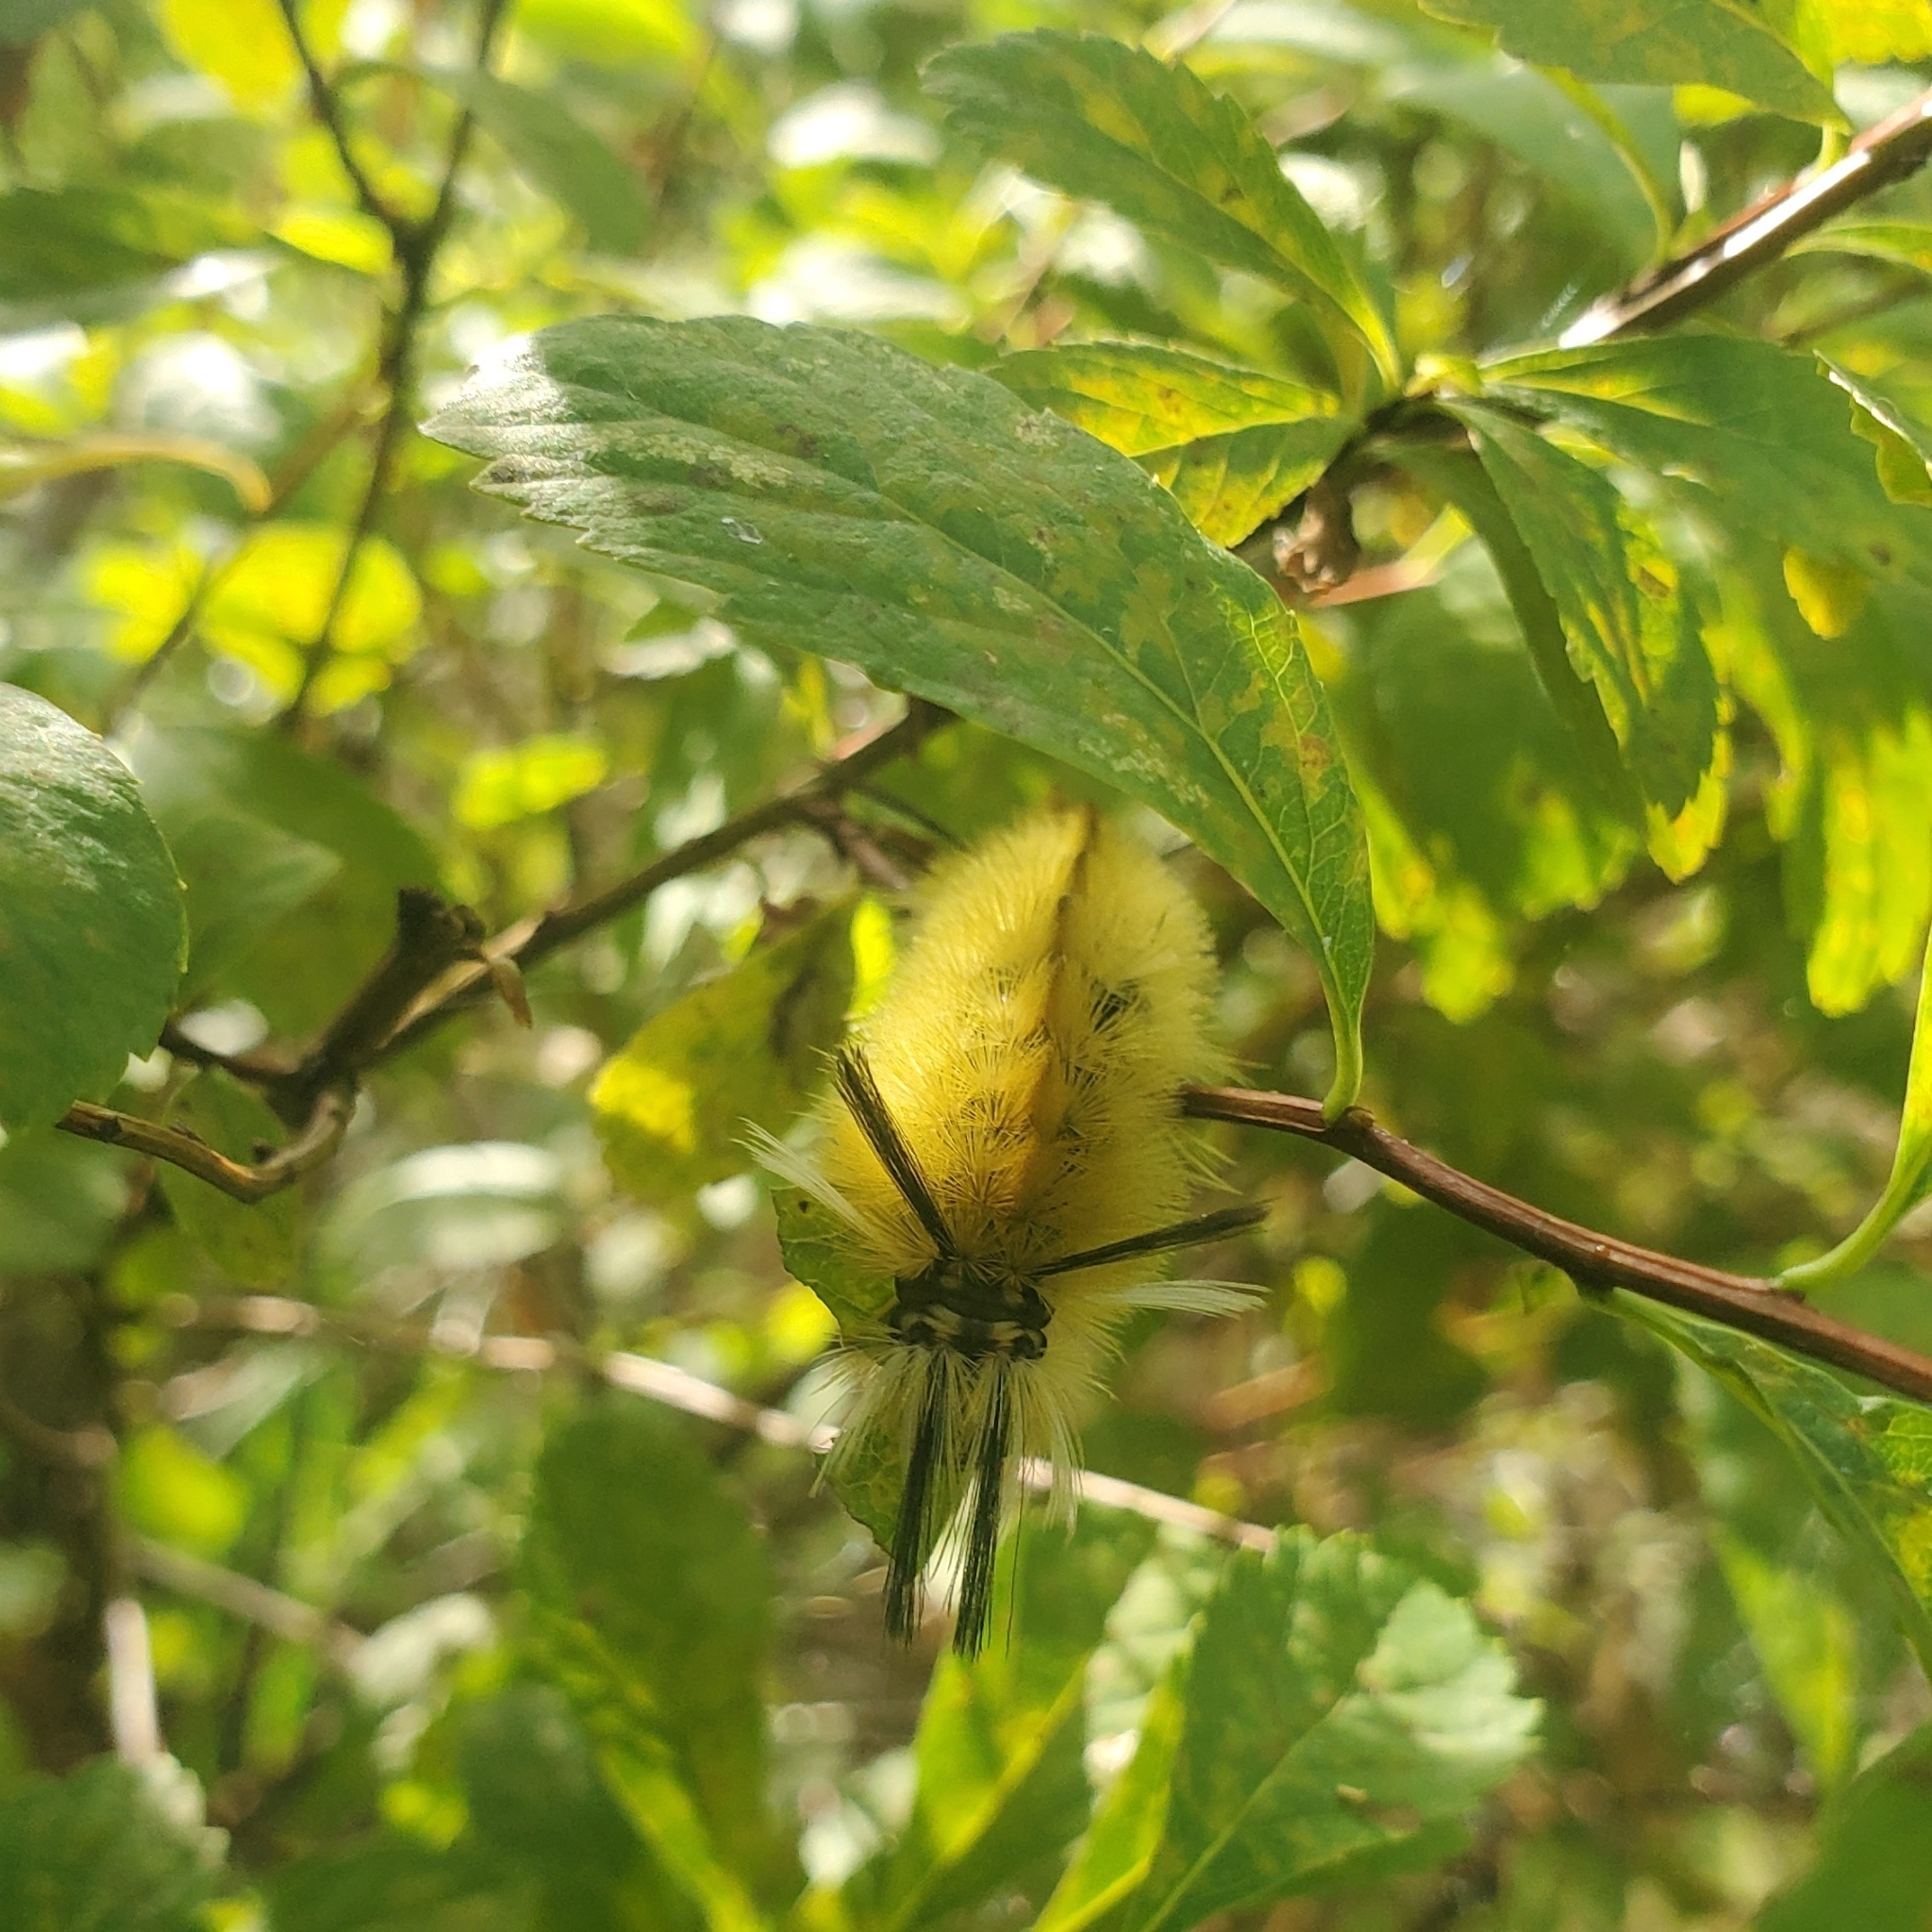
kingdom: Animalia
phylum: Arthropoda
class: Insecta
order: Lepidoptera
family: Erebidae
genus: Halysidota
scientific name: Halysidota tessellaris
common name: Banded tussock moth
